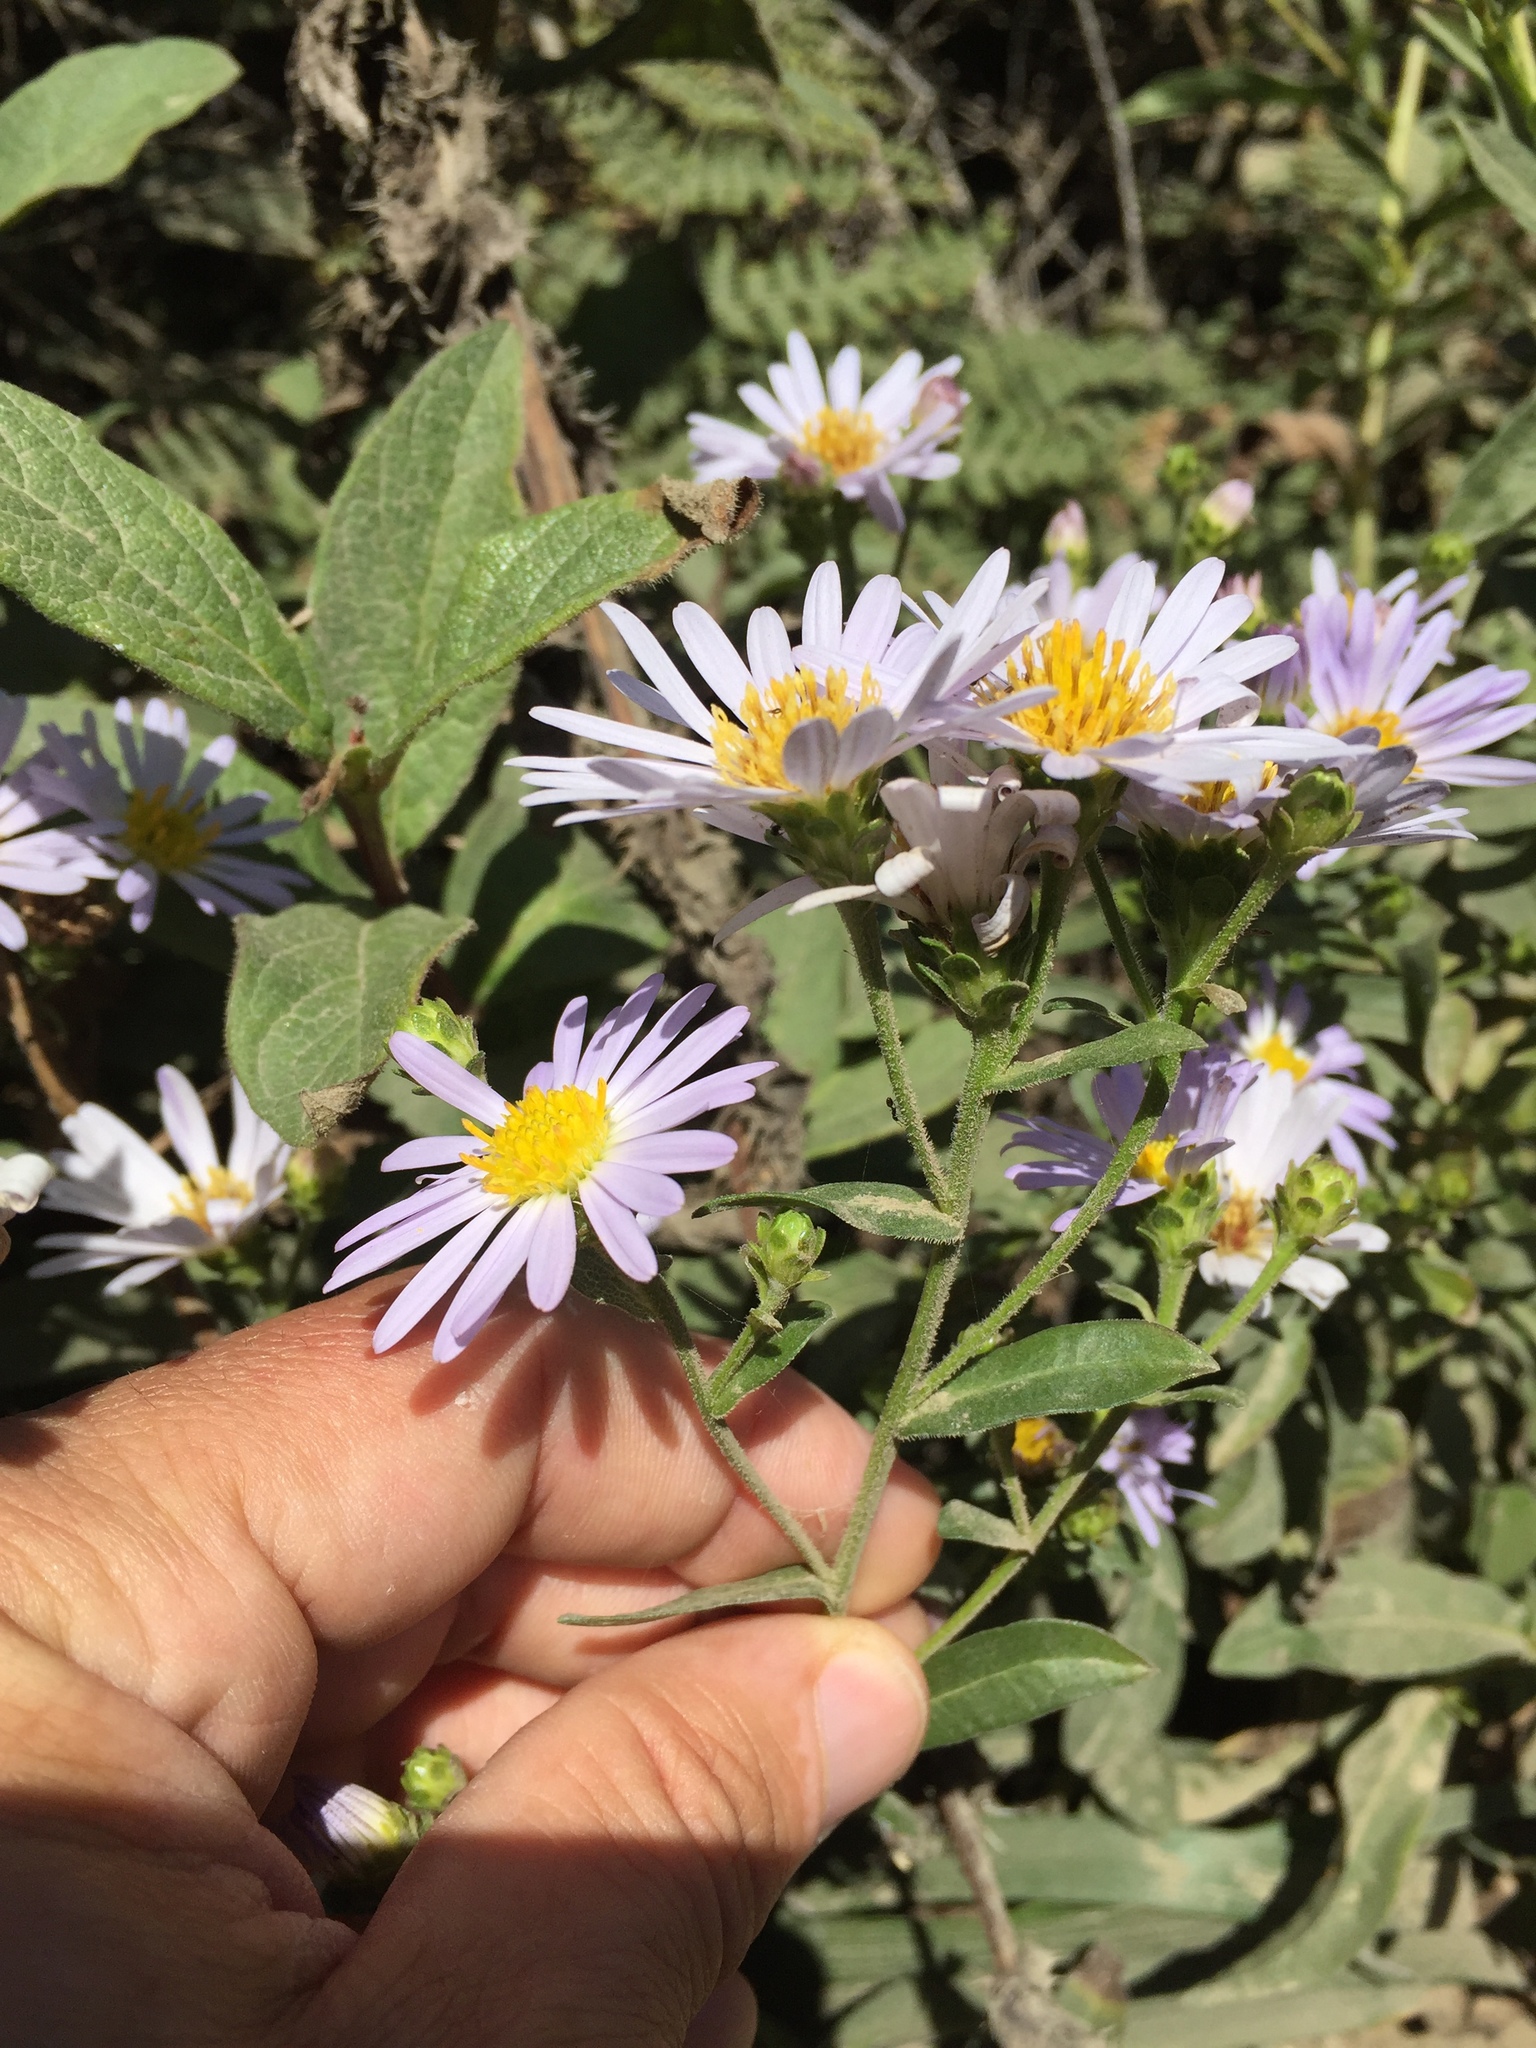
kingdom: Plantae
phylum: Tracheophyta
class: Magnoliopsida
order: Asterales
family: Asteraceae
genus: Symphyotrichum
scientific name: Symphyotrichum chilense
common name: Pacific aster
